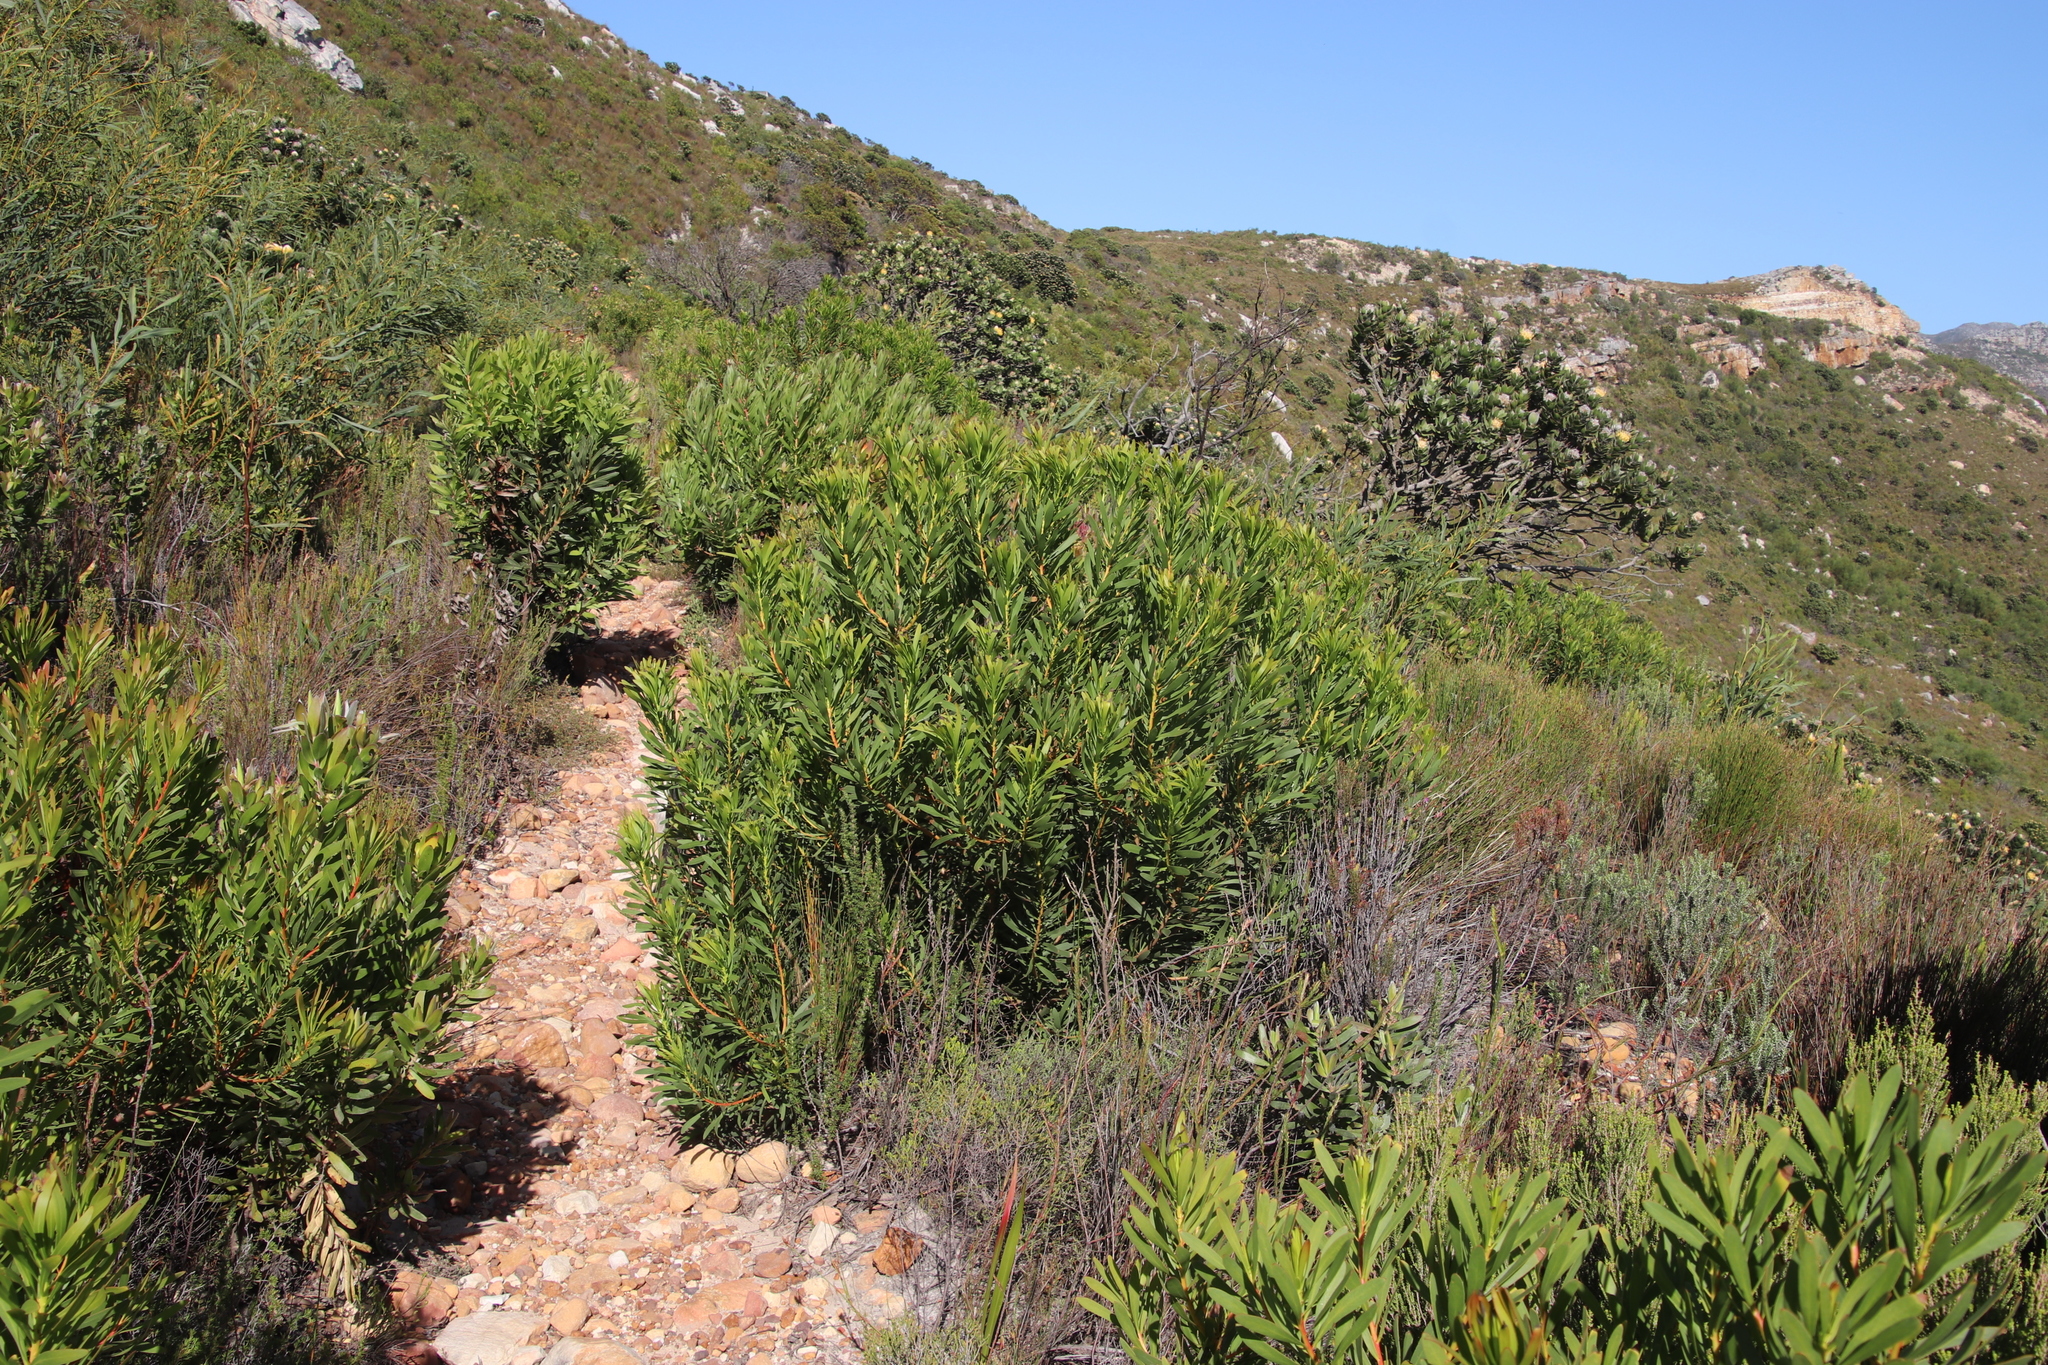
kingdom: Plantae
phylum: Tracheophyta
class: Magnoliopsida
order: Proteales
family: Proteaceae
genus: Protea
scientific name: Protea repens
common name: Sugarbush
